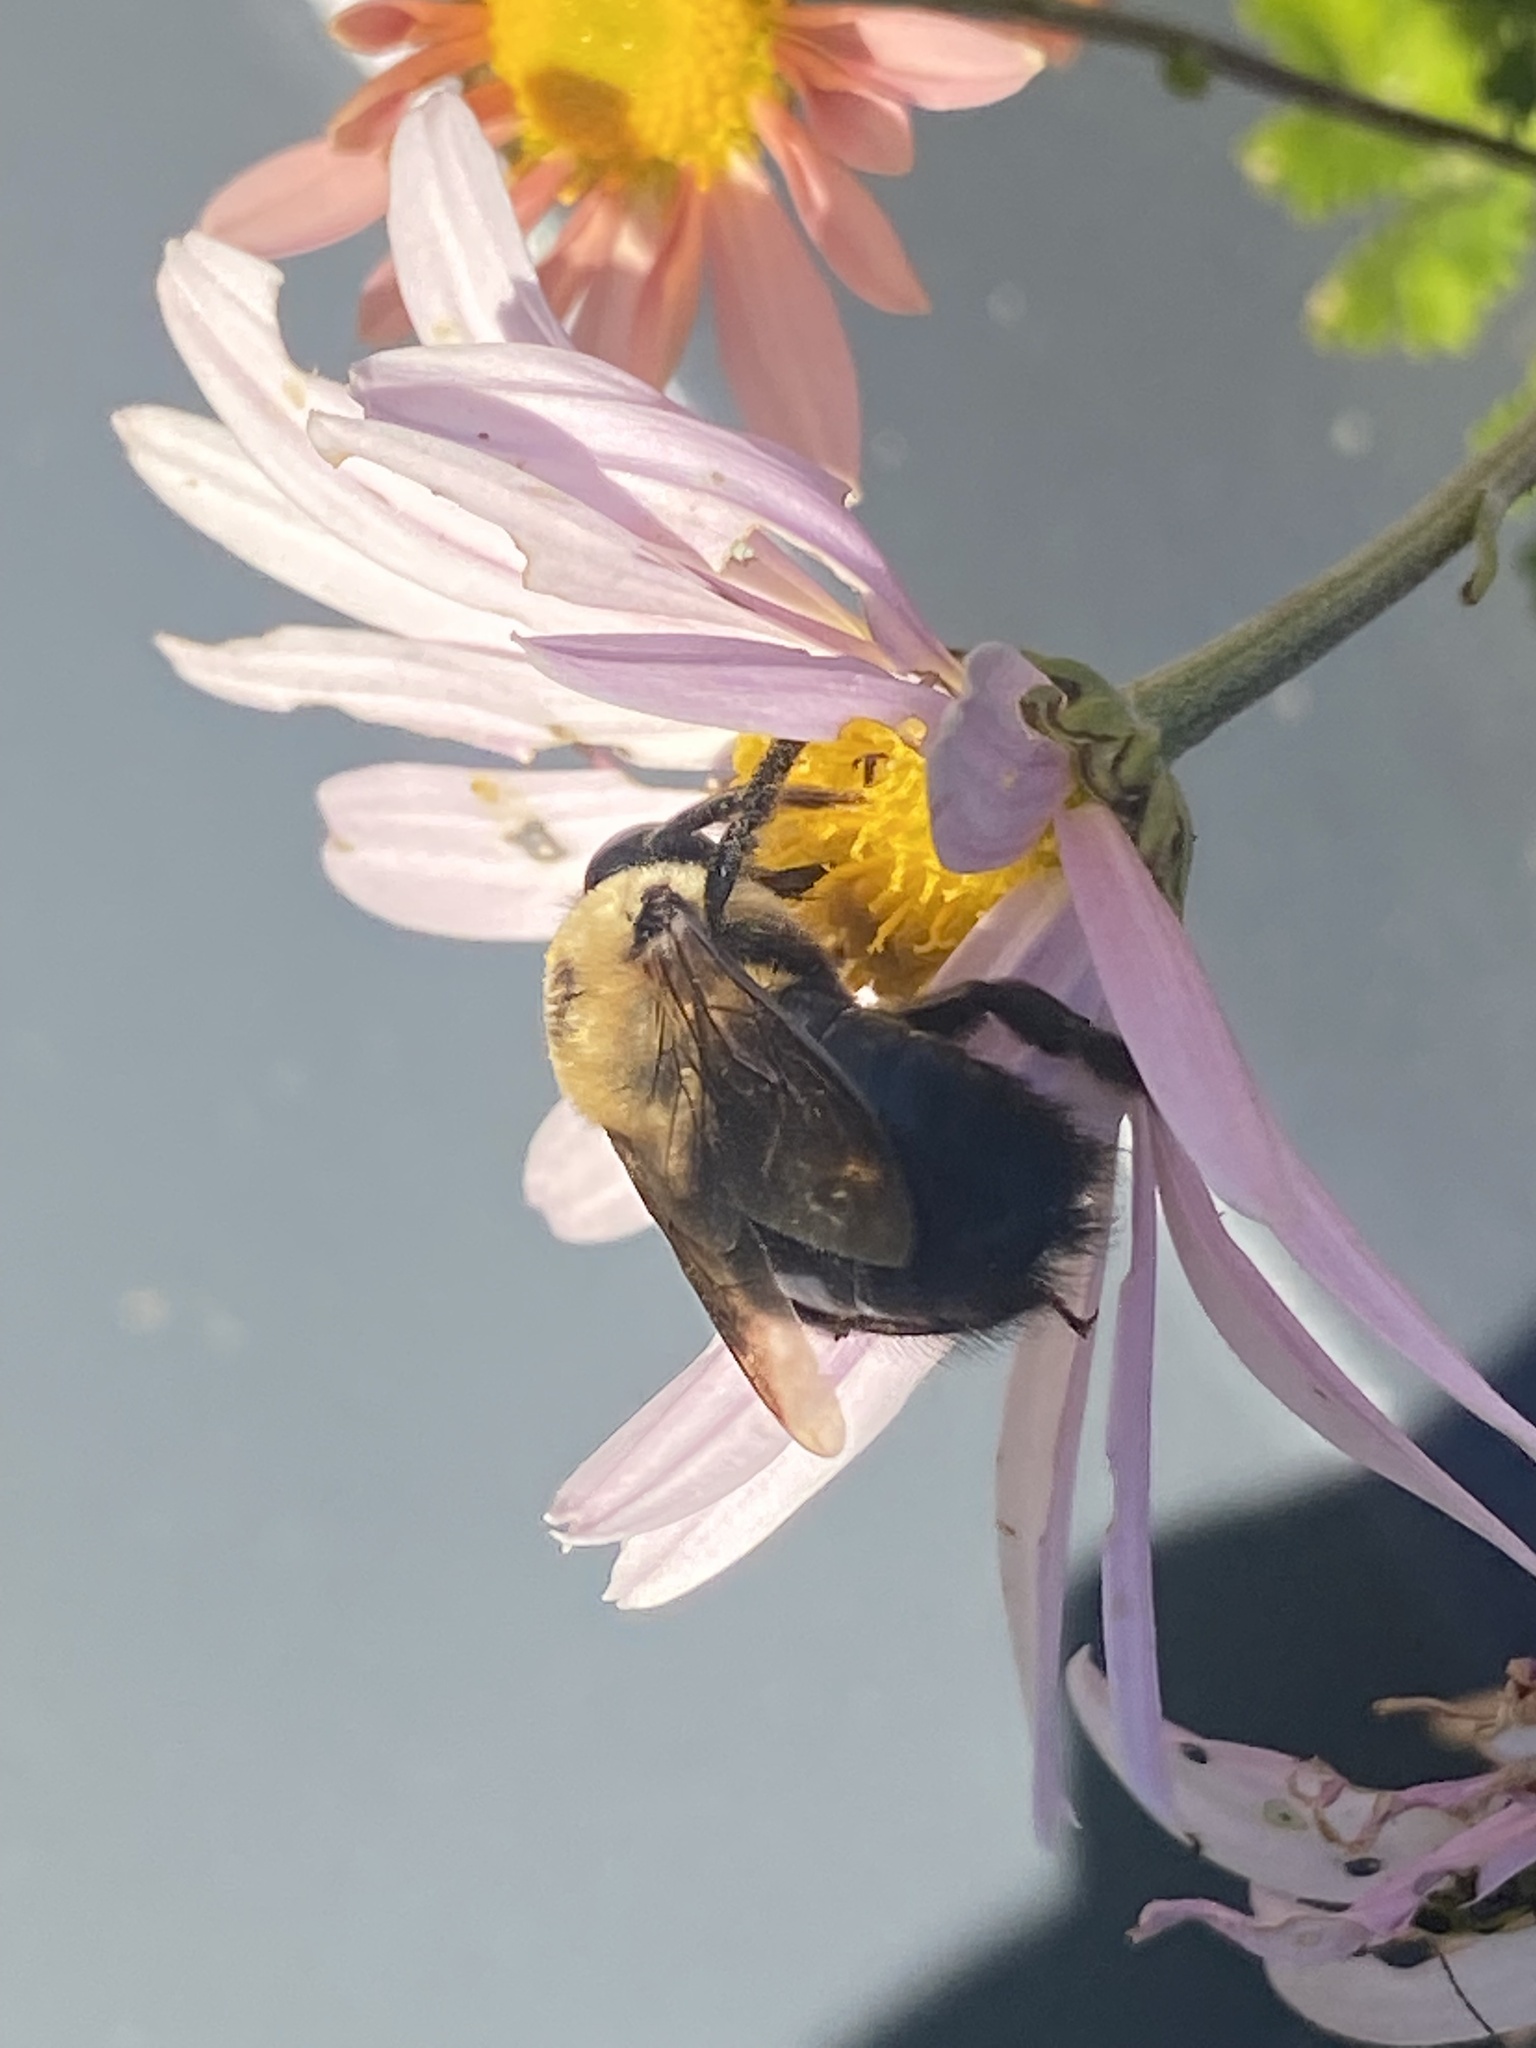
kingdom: Animalia
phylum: Arthropoda
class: Insecta
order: Hymenoptera
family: Apidae
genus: Xylocopa
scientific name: Xylocopa virginica
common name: Carpenter bee
